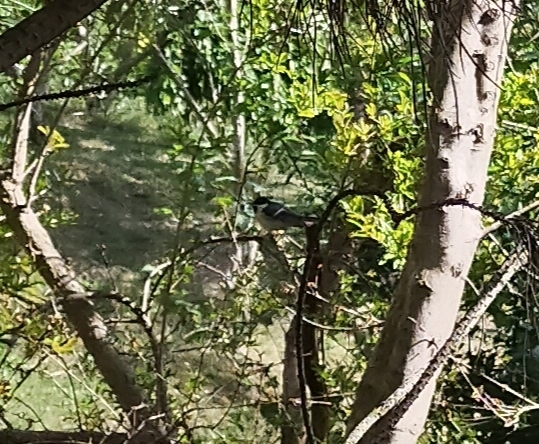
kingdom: Animalia
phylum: Chordata
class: Aves
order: Passeriformes
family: Paridae
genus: Parus
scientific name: Parus major
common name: Great tit
